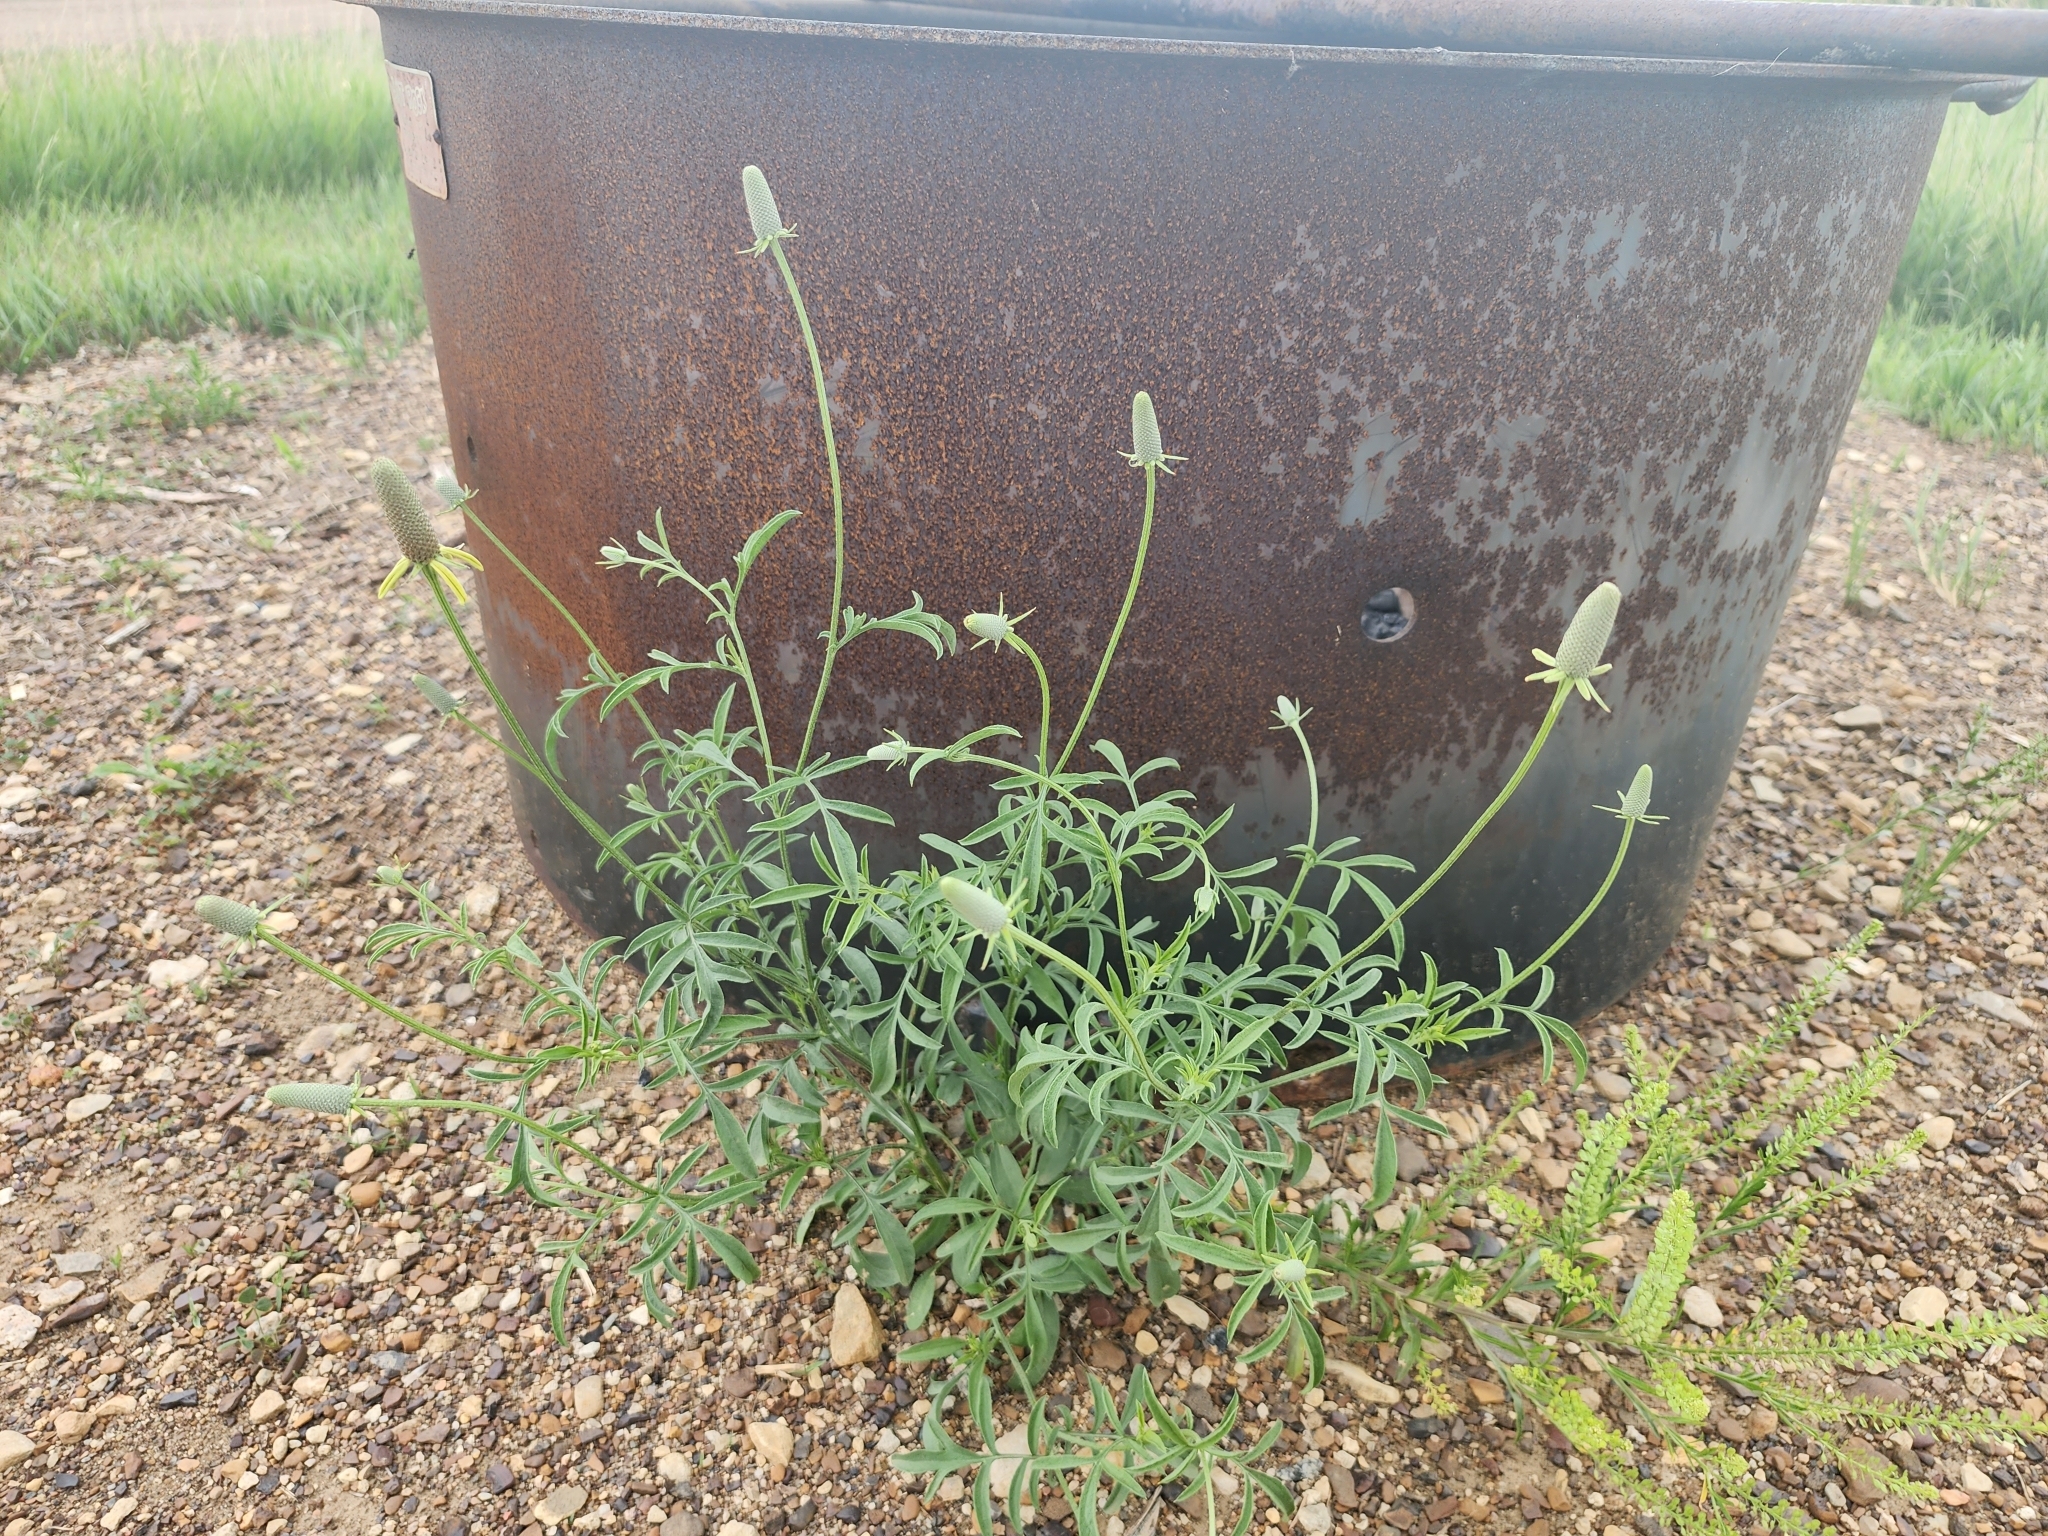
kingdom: Plantae
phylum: Tracheophyta
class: Magnoliopsida
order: Asterales
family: Asteraceae
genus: Ratibida
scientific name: Ratibida columnifera
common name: Prairie coneflower
